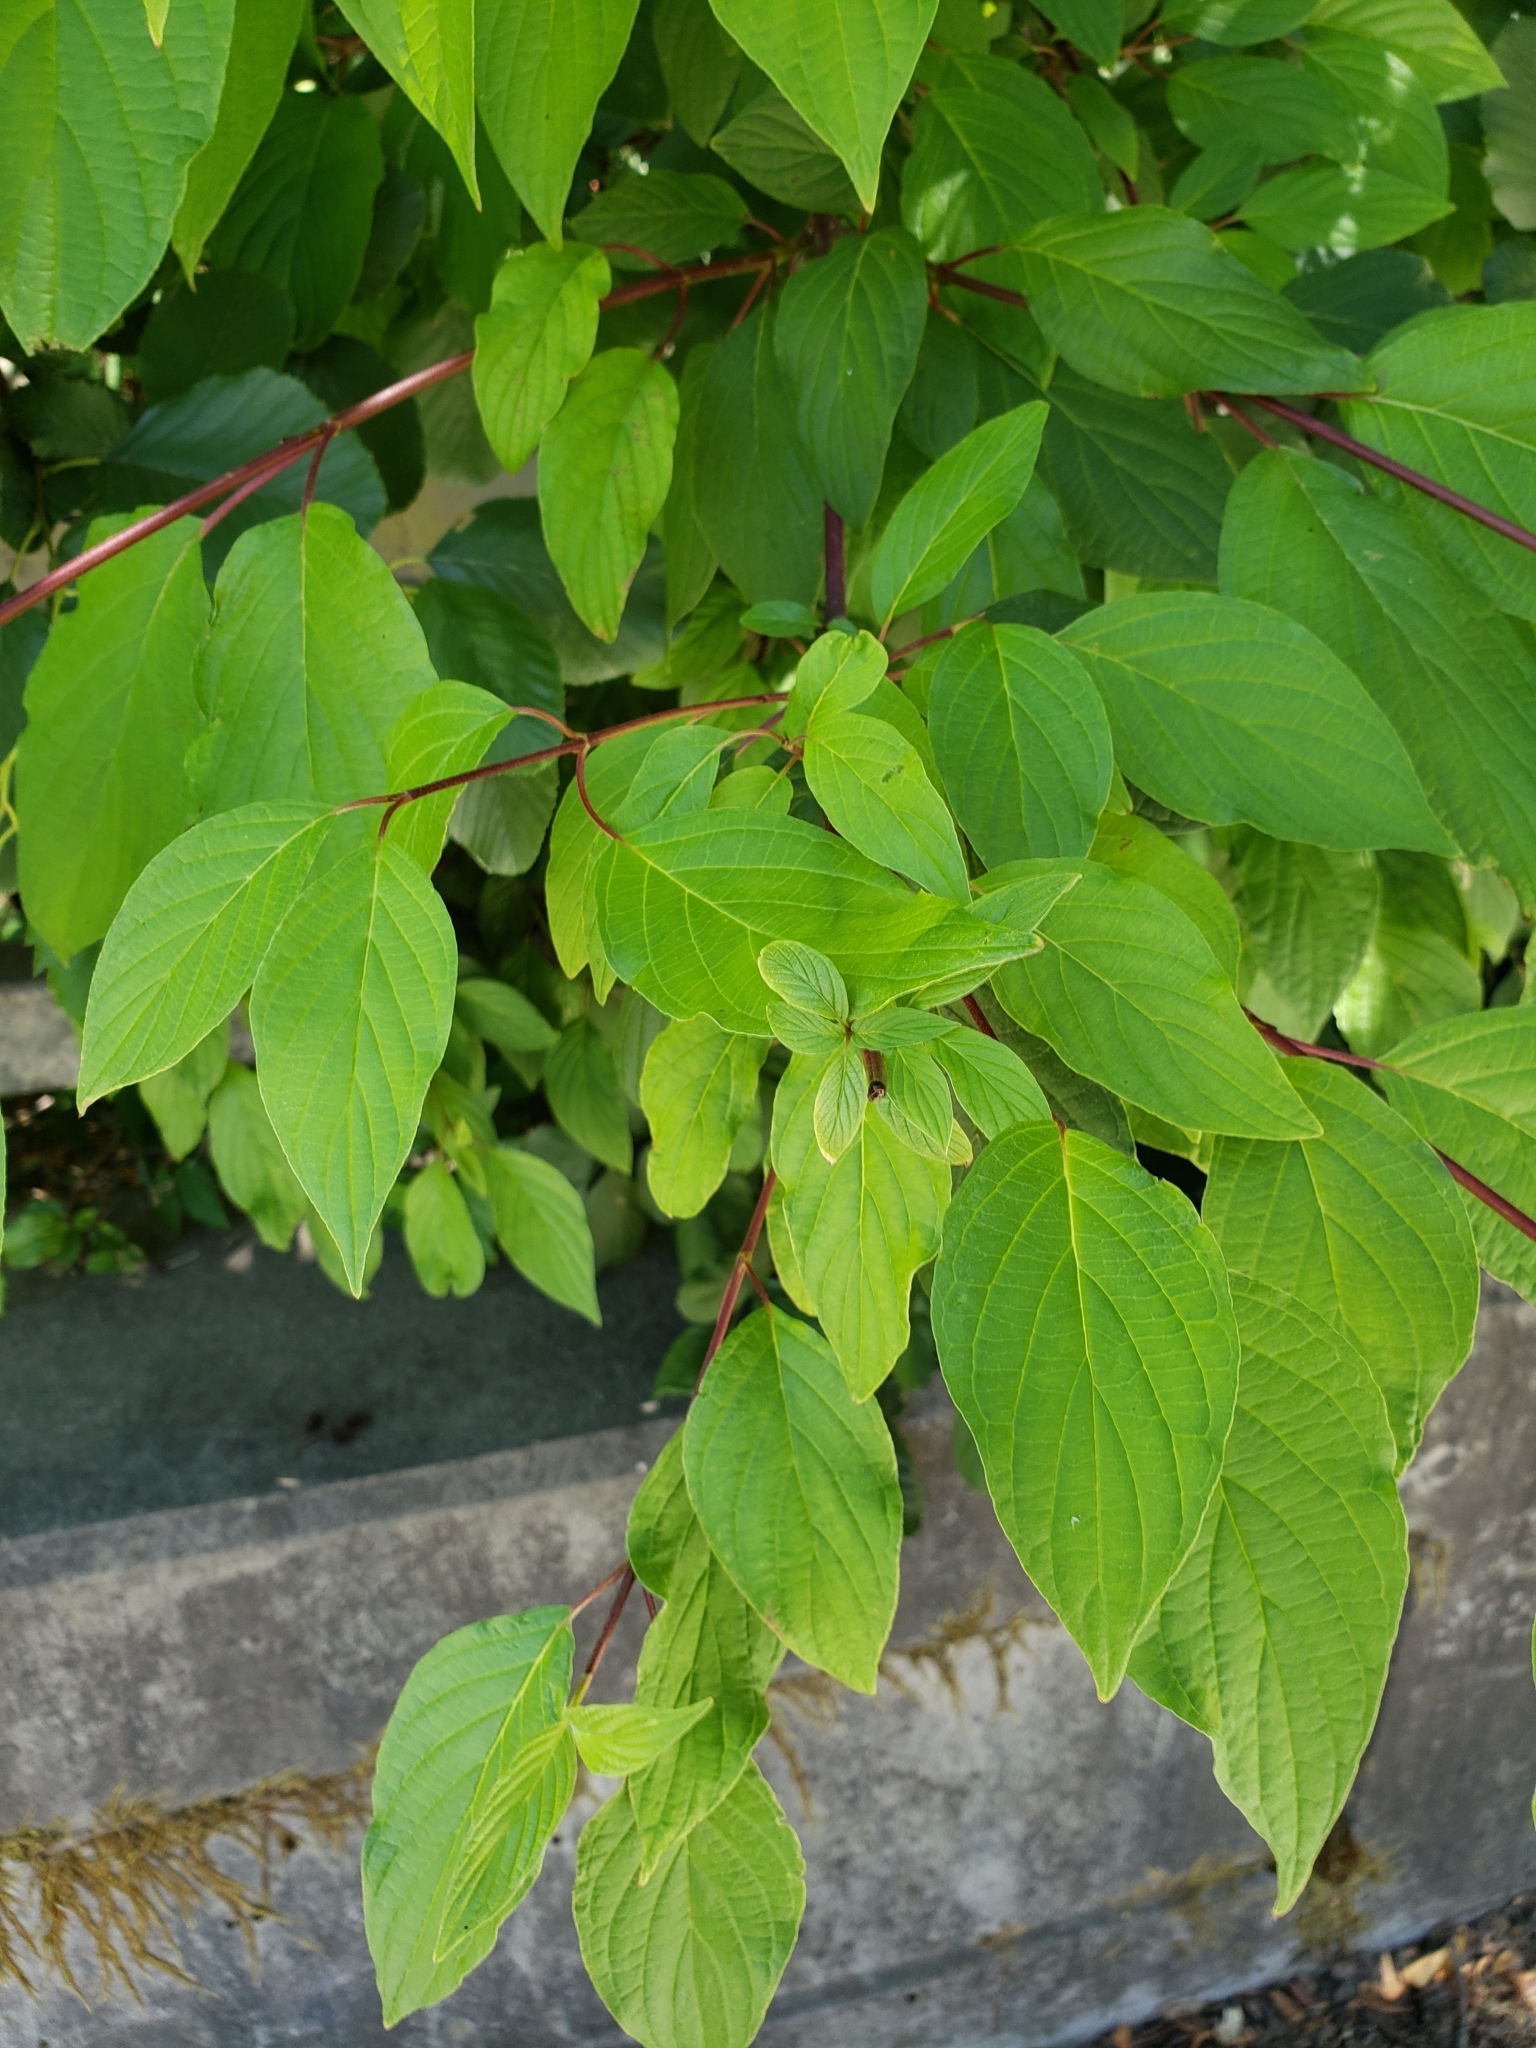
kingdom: Plantae
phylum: Tracheophyta
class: Magnoliopsida
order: Cornales
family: Cornaceae
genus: Cornus
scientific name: Cornus sericea
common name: Red-osier dogwood
